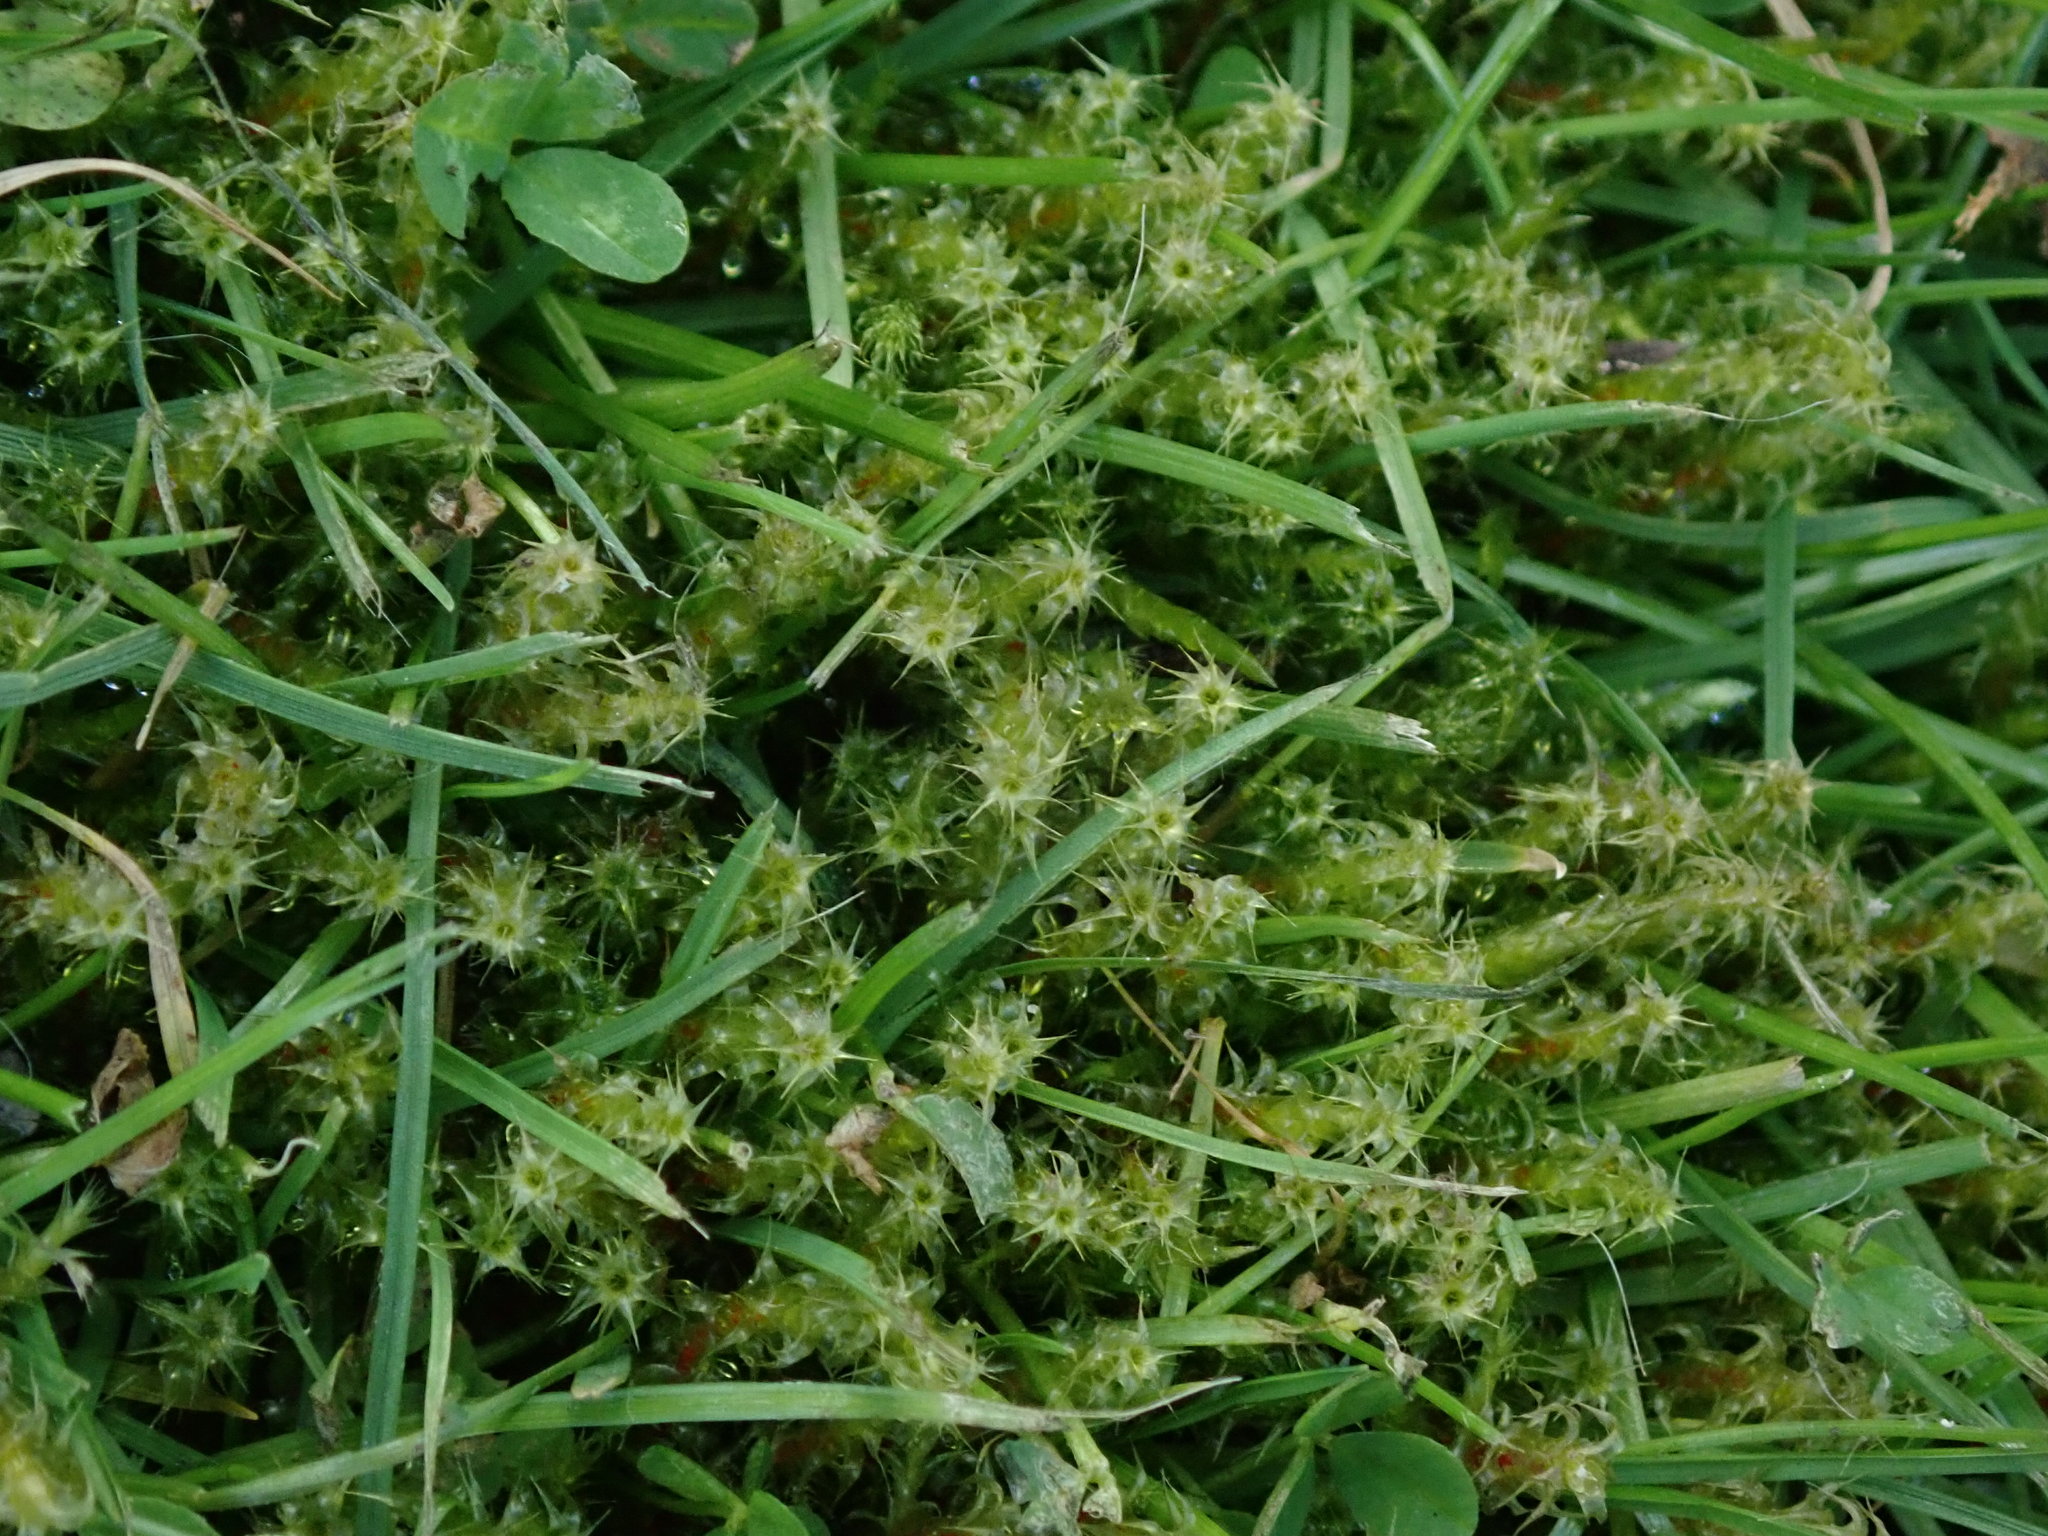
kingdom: Plantae
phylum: Bryophyta
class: Bryopsida
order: Hypnales
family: Hylocomiaceae
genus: Rhytidiadelphus
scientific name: Rhytidiadelphus squarrosus
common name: Springy turf-moss
